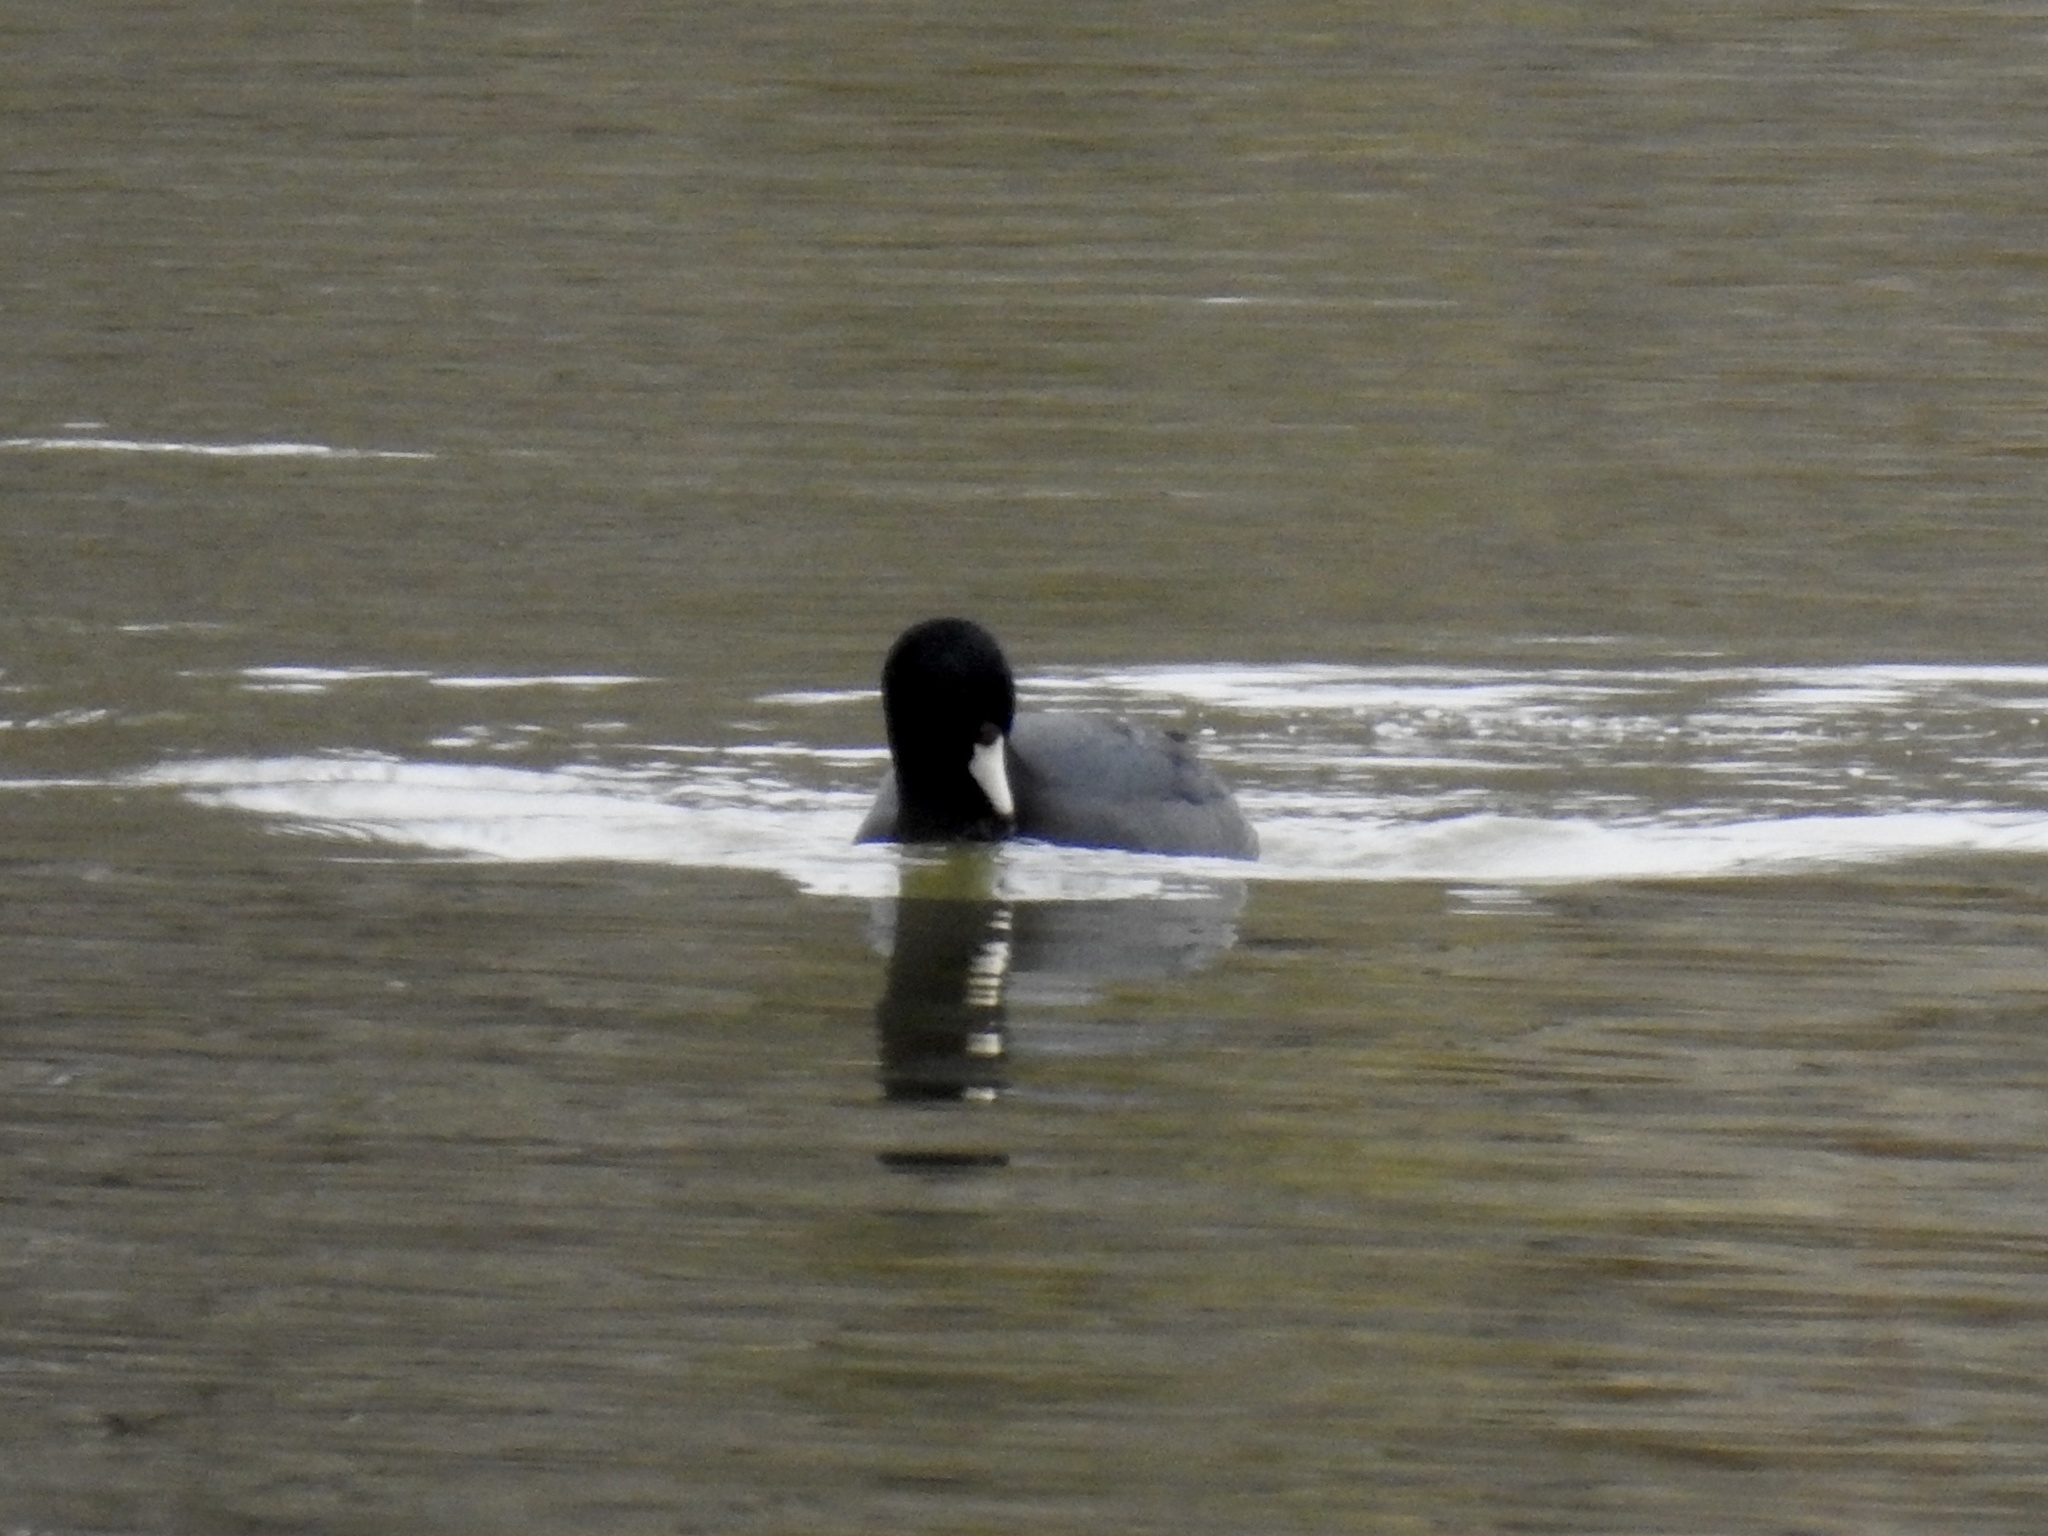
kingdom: Animalia
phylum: Chordata
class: Aves
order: Gruiformes
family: Rallidae
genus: Fulica
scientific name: Fulica americana
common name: American coot
